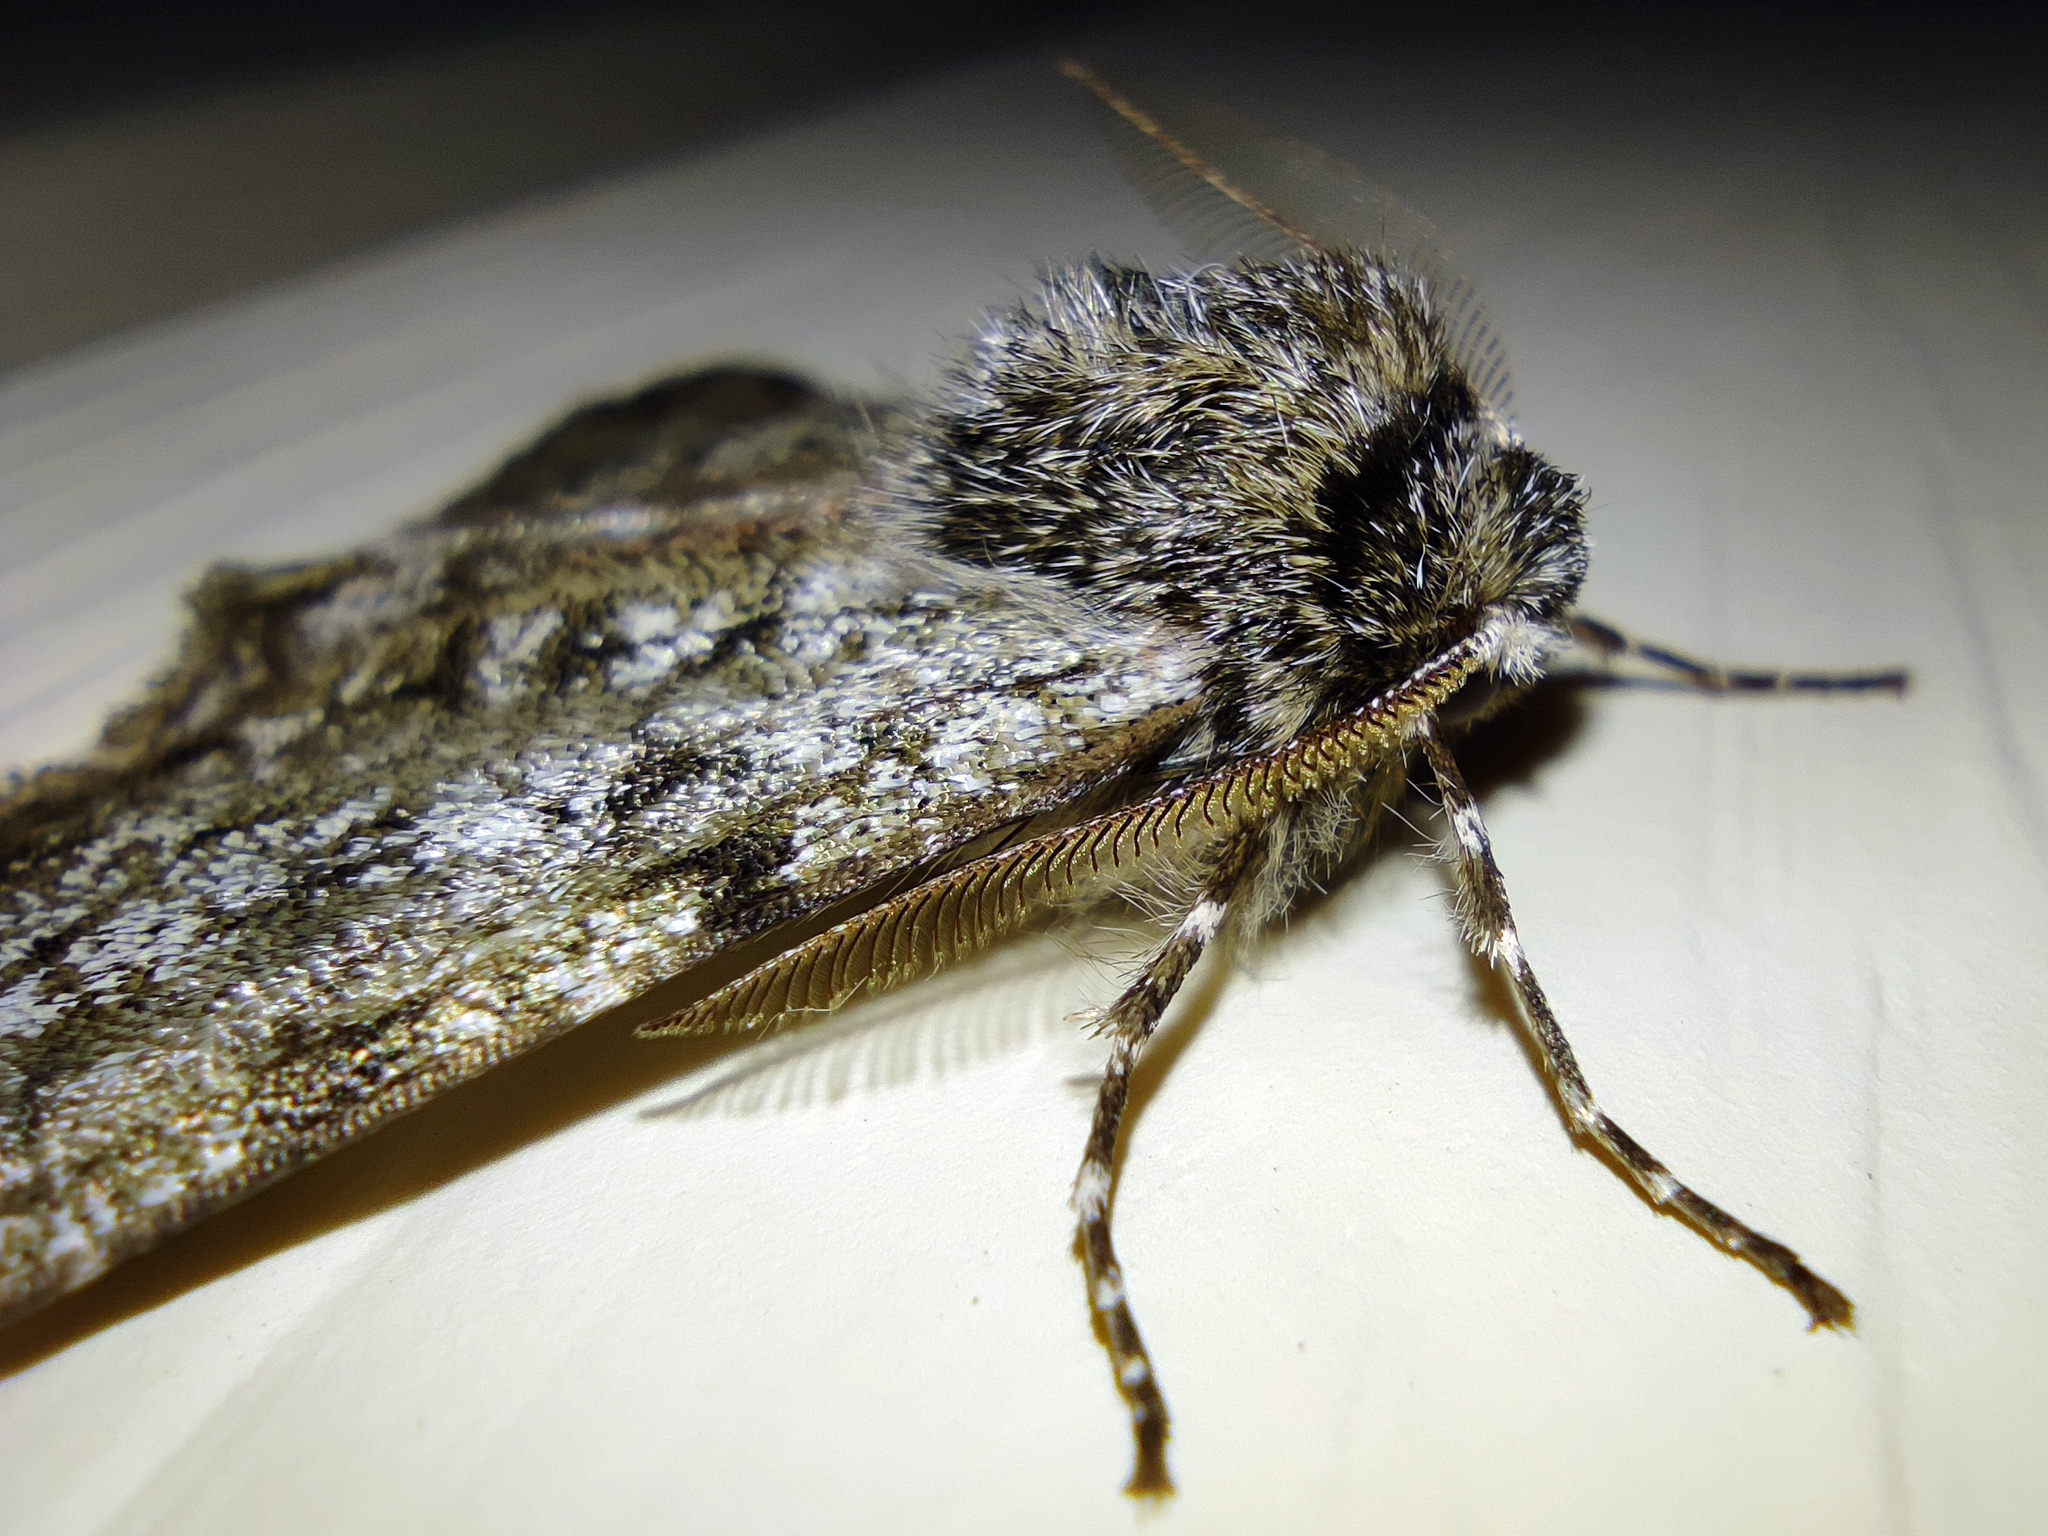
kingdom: Animalia
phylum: Arthropoda
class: Insecta
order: Lepidoptera
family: Geometridae
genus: Phigalia
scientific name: Phigalia pilosaria
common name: Pale brindled beauty
